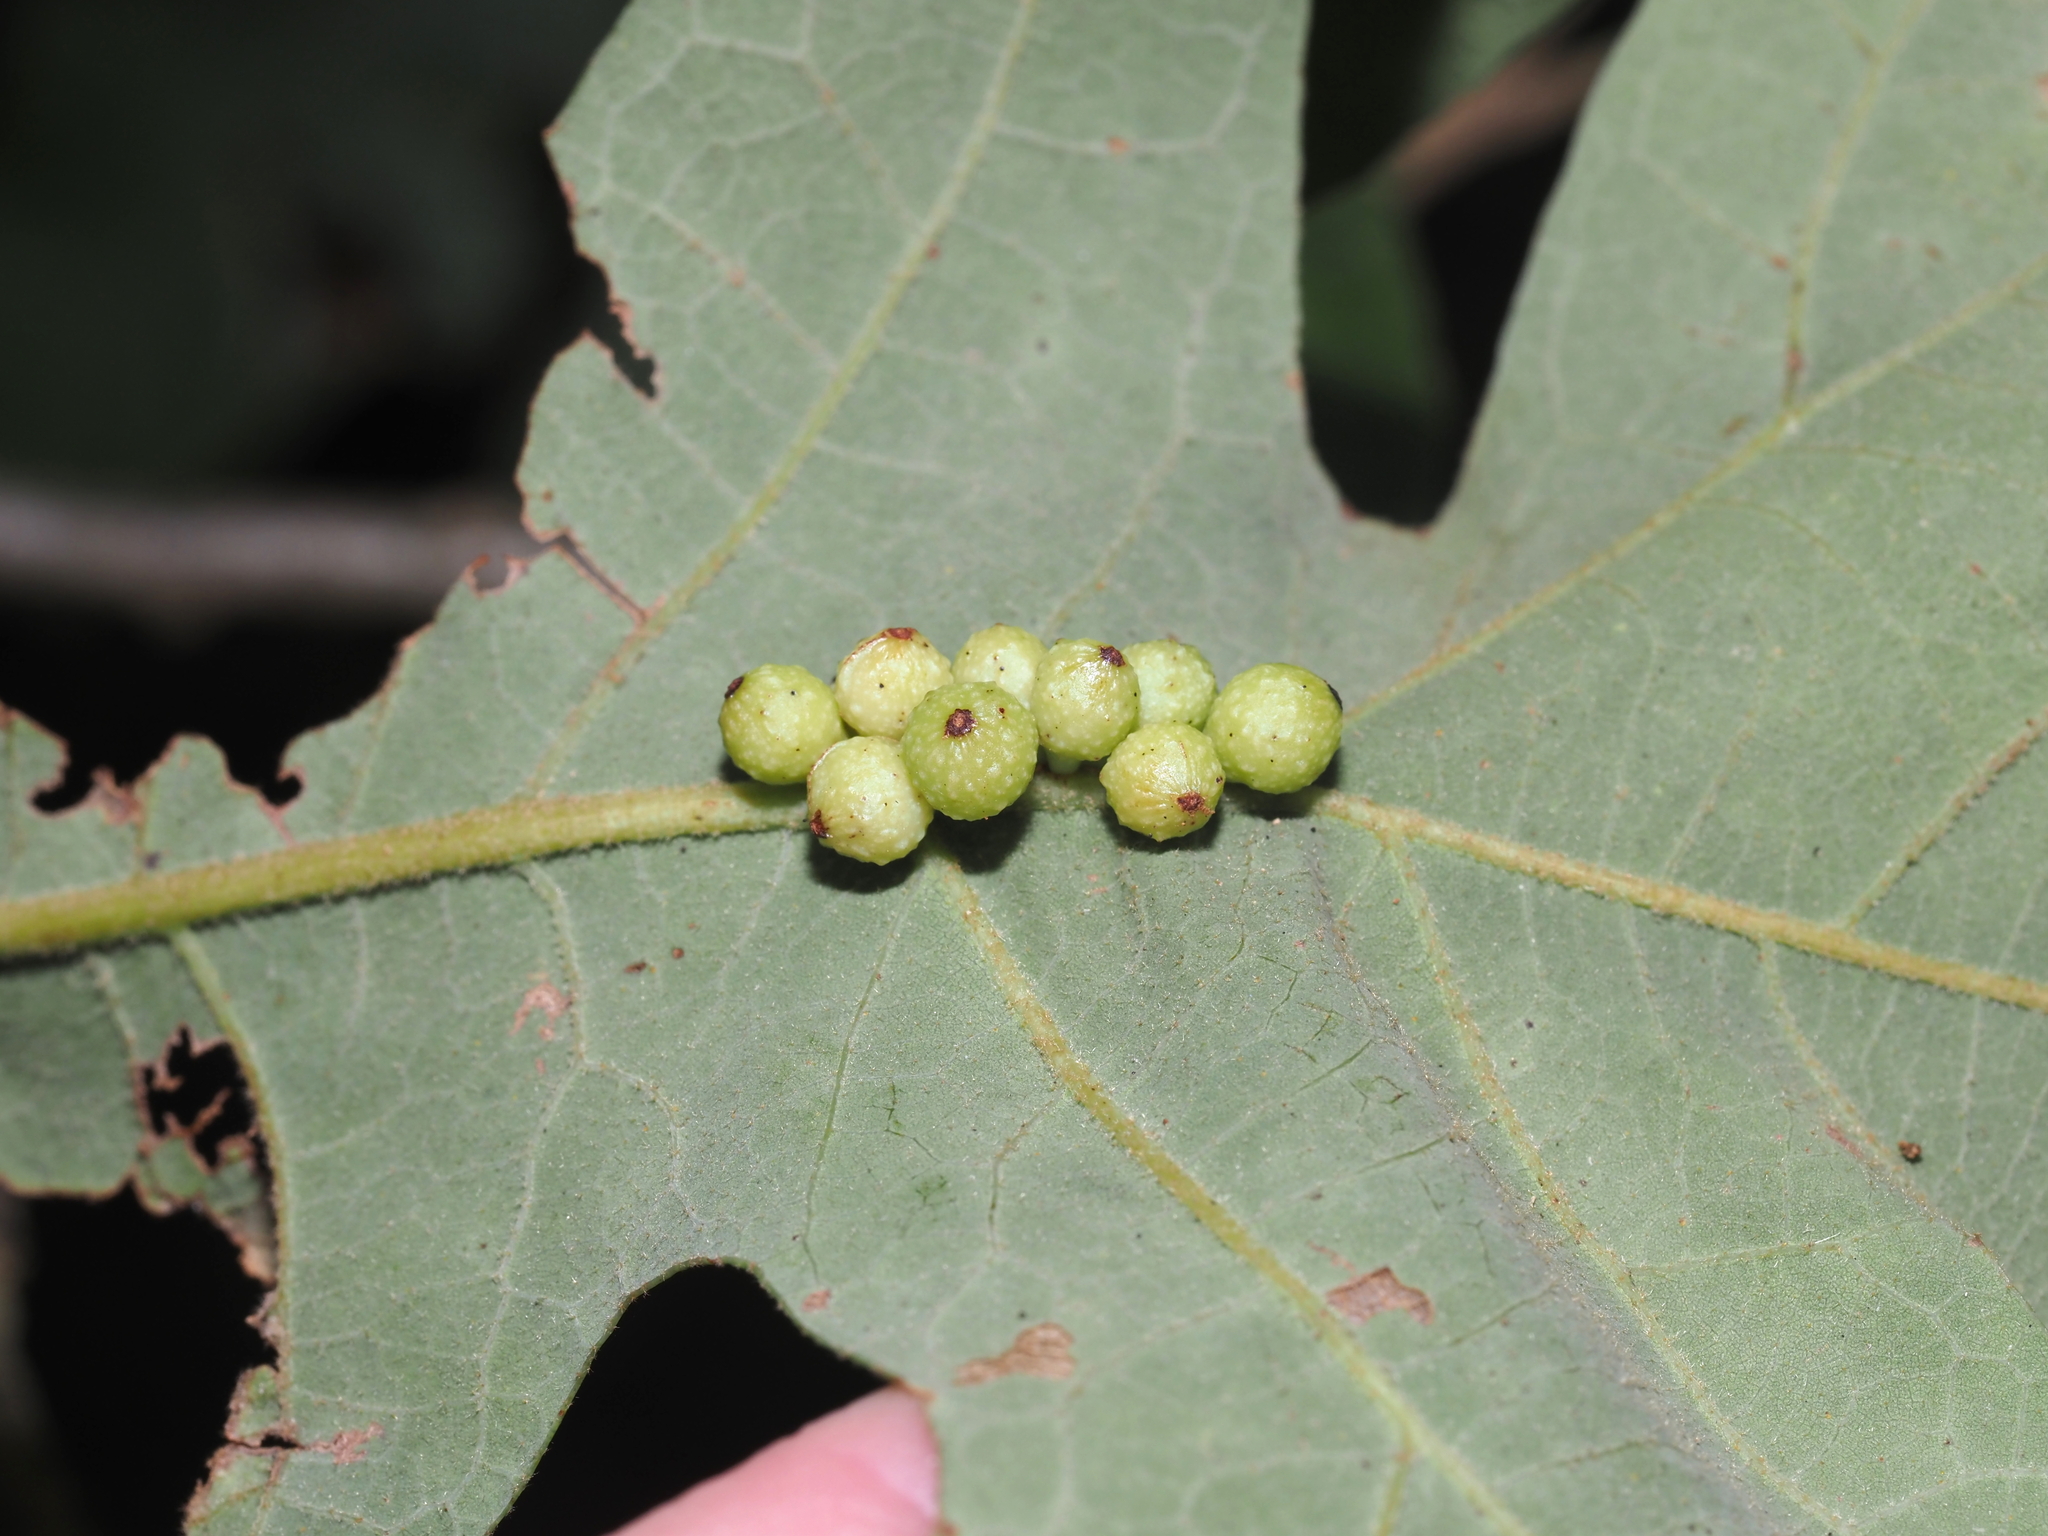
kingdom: Animalia
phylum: Arthropoda
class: Insecta
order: Hymenoptera
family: Cynipidae
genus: Andricus
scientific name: Andricus
